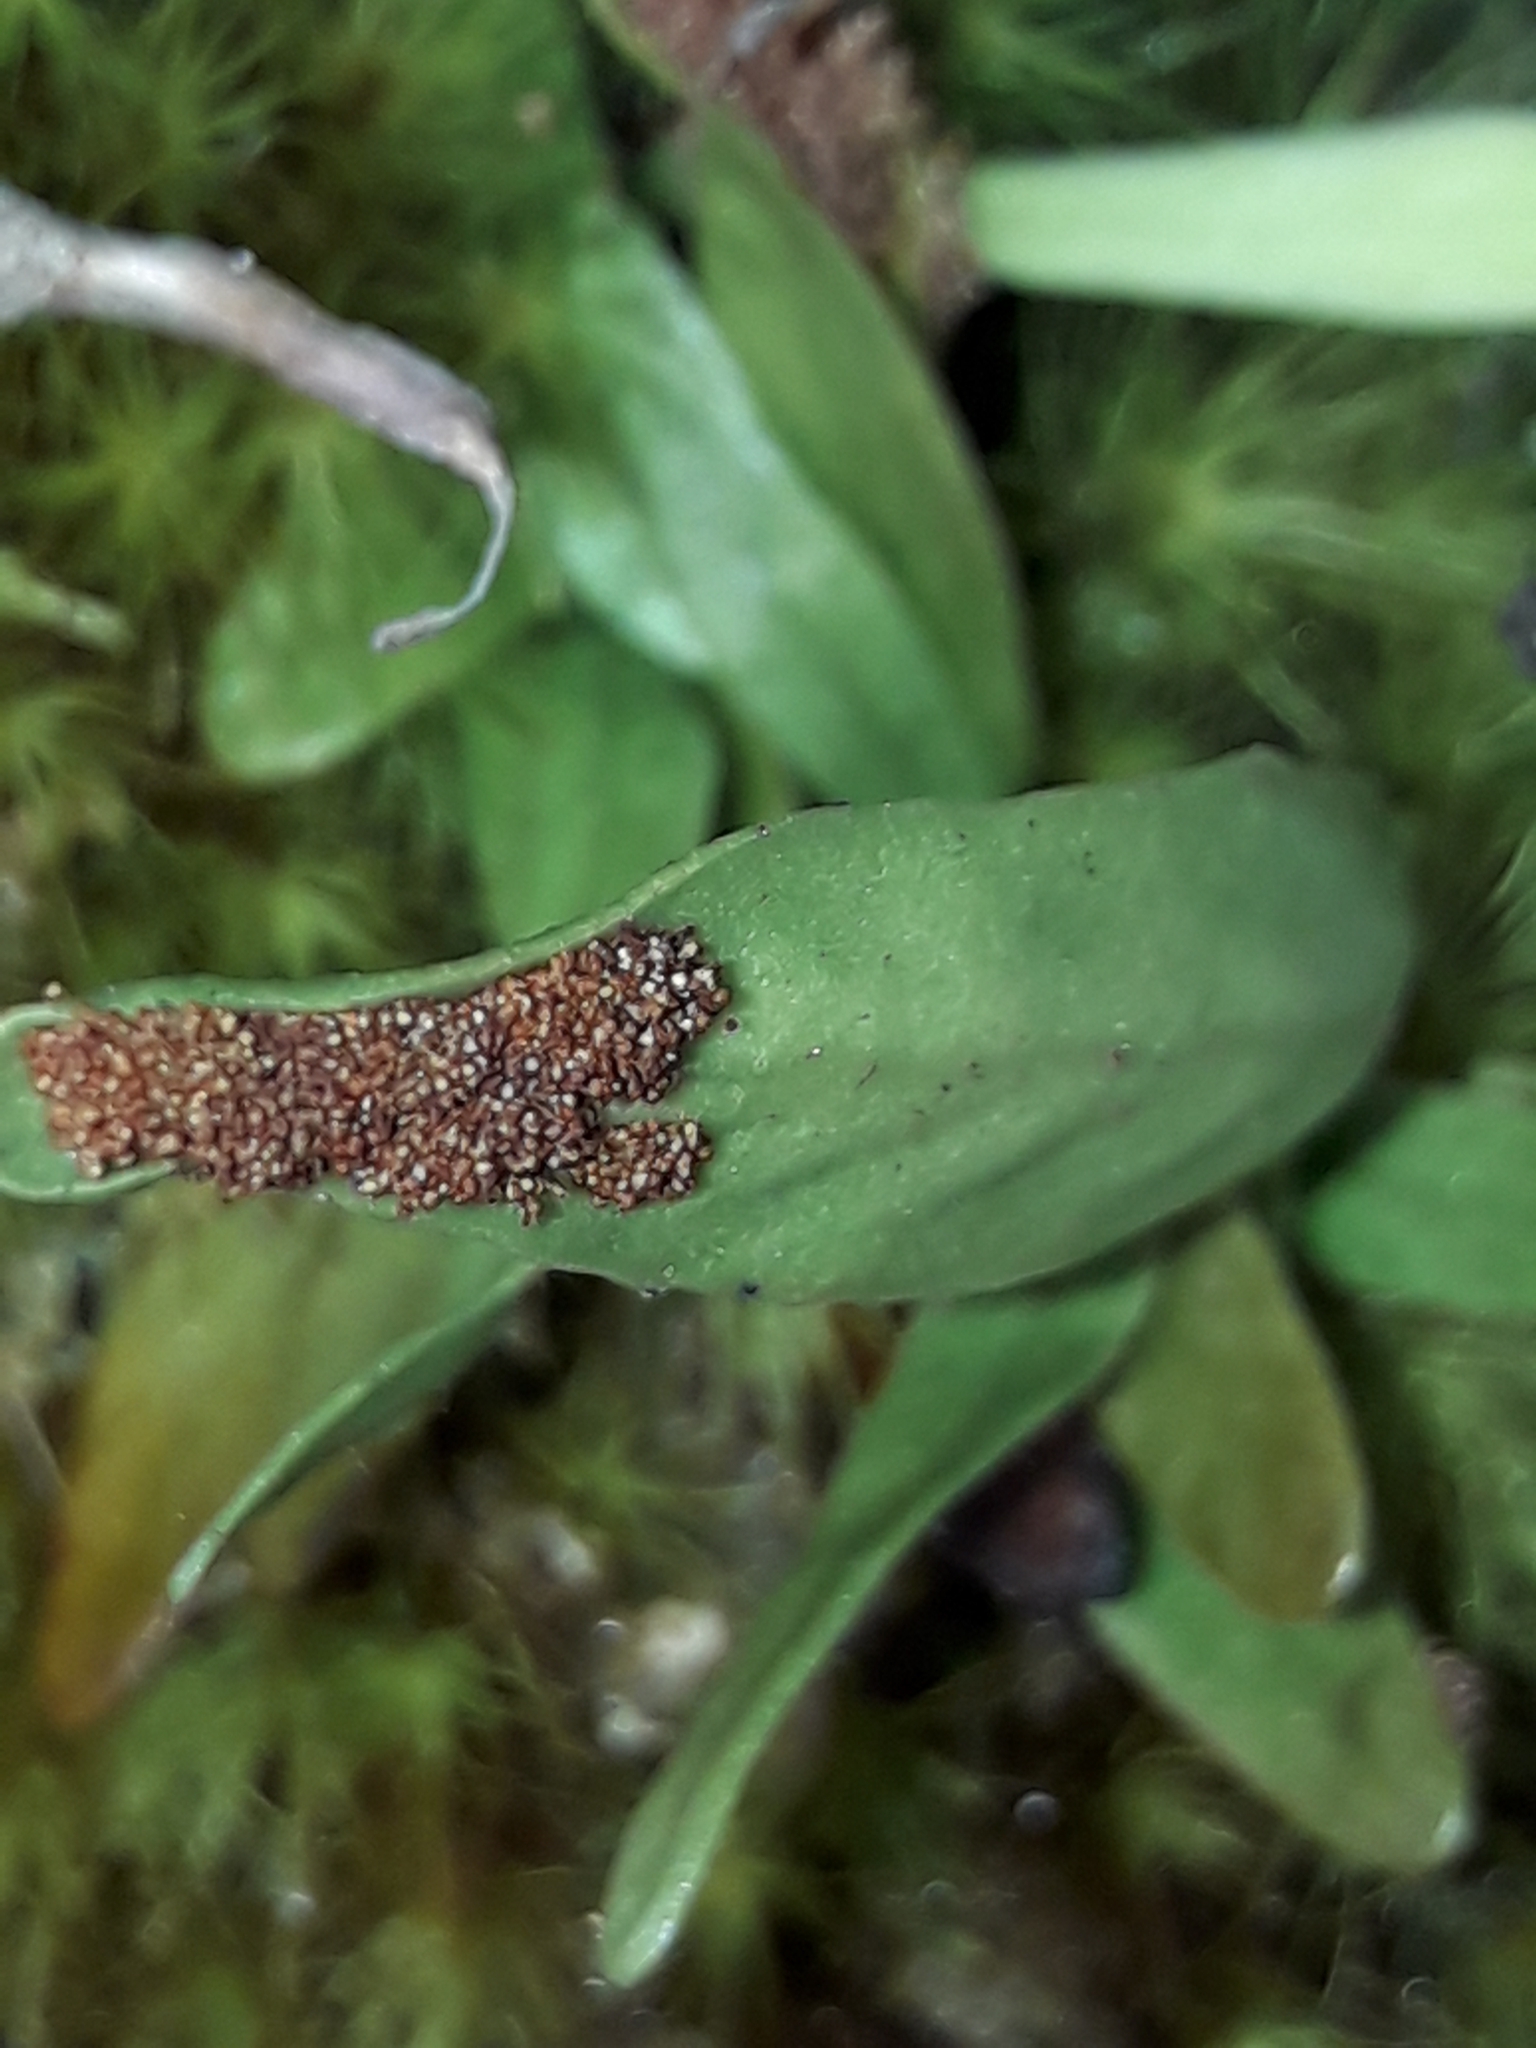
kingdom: Plantae
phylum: Tracheophyta
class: Polypodiopsida
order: Polypodiales
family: Polypodiaceae
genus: Notogrammitis
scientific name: Notogrammitis givenii
